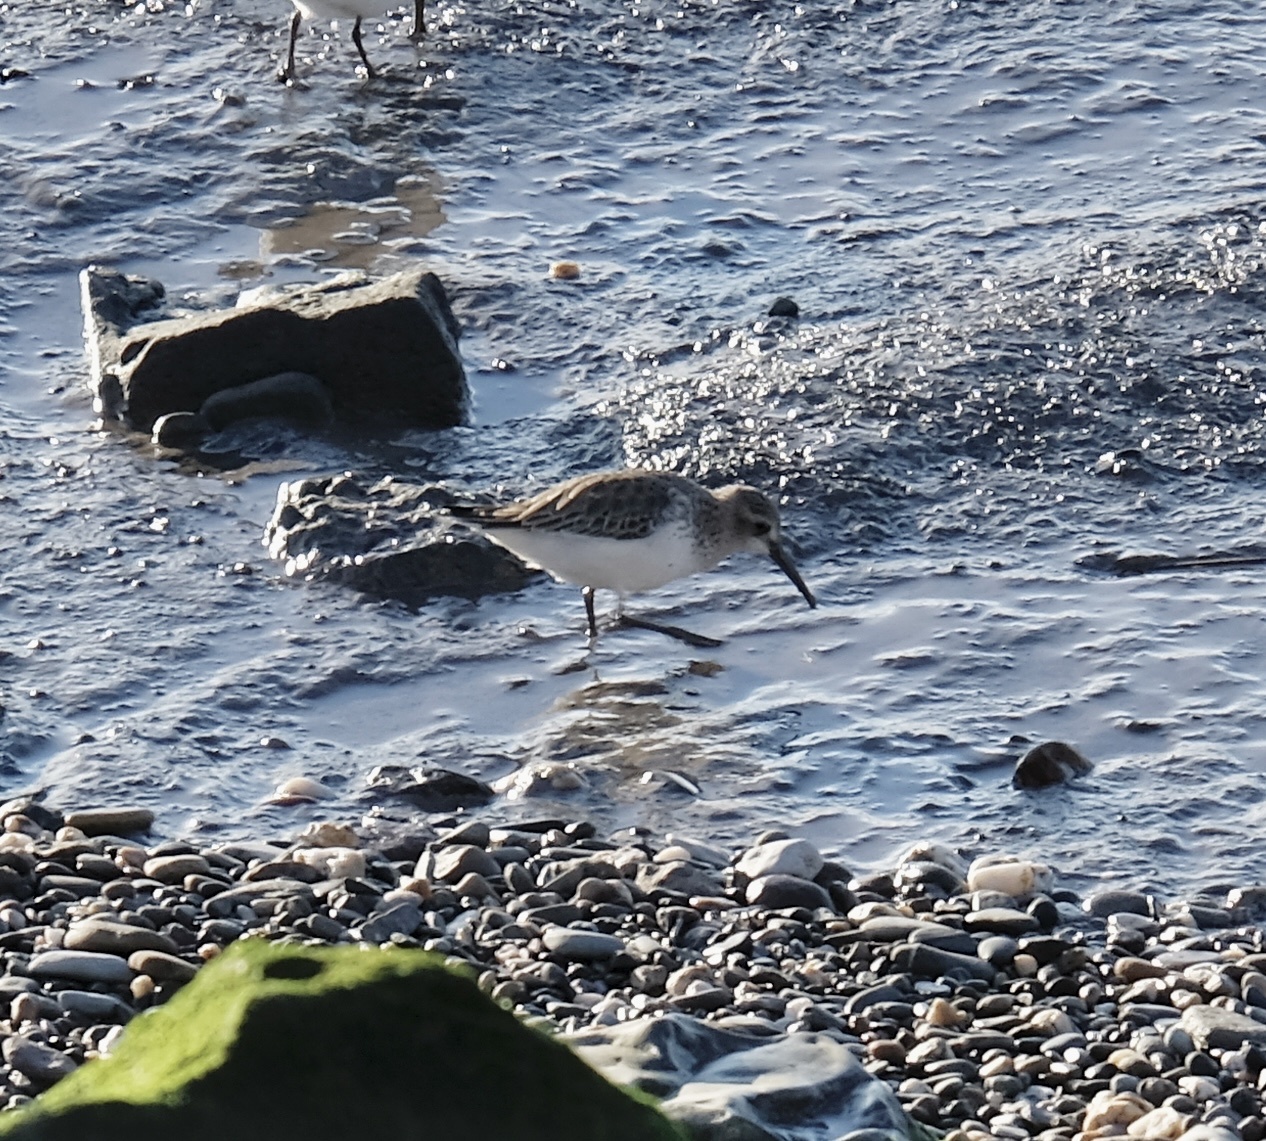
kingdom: Animalia
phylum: Chordata
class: Aves
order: Charadriiformes
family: Scolopacidae
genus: Calidris
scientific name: Calidris alpina
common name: Dunlin
